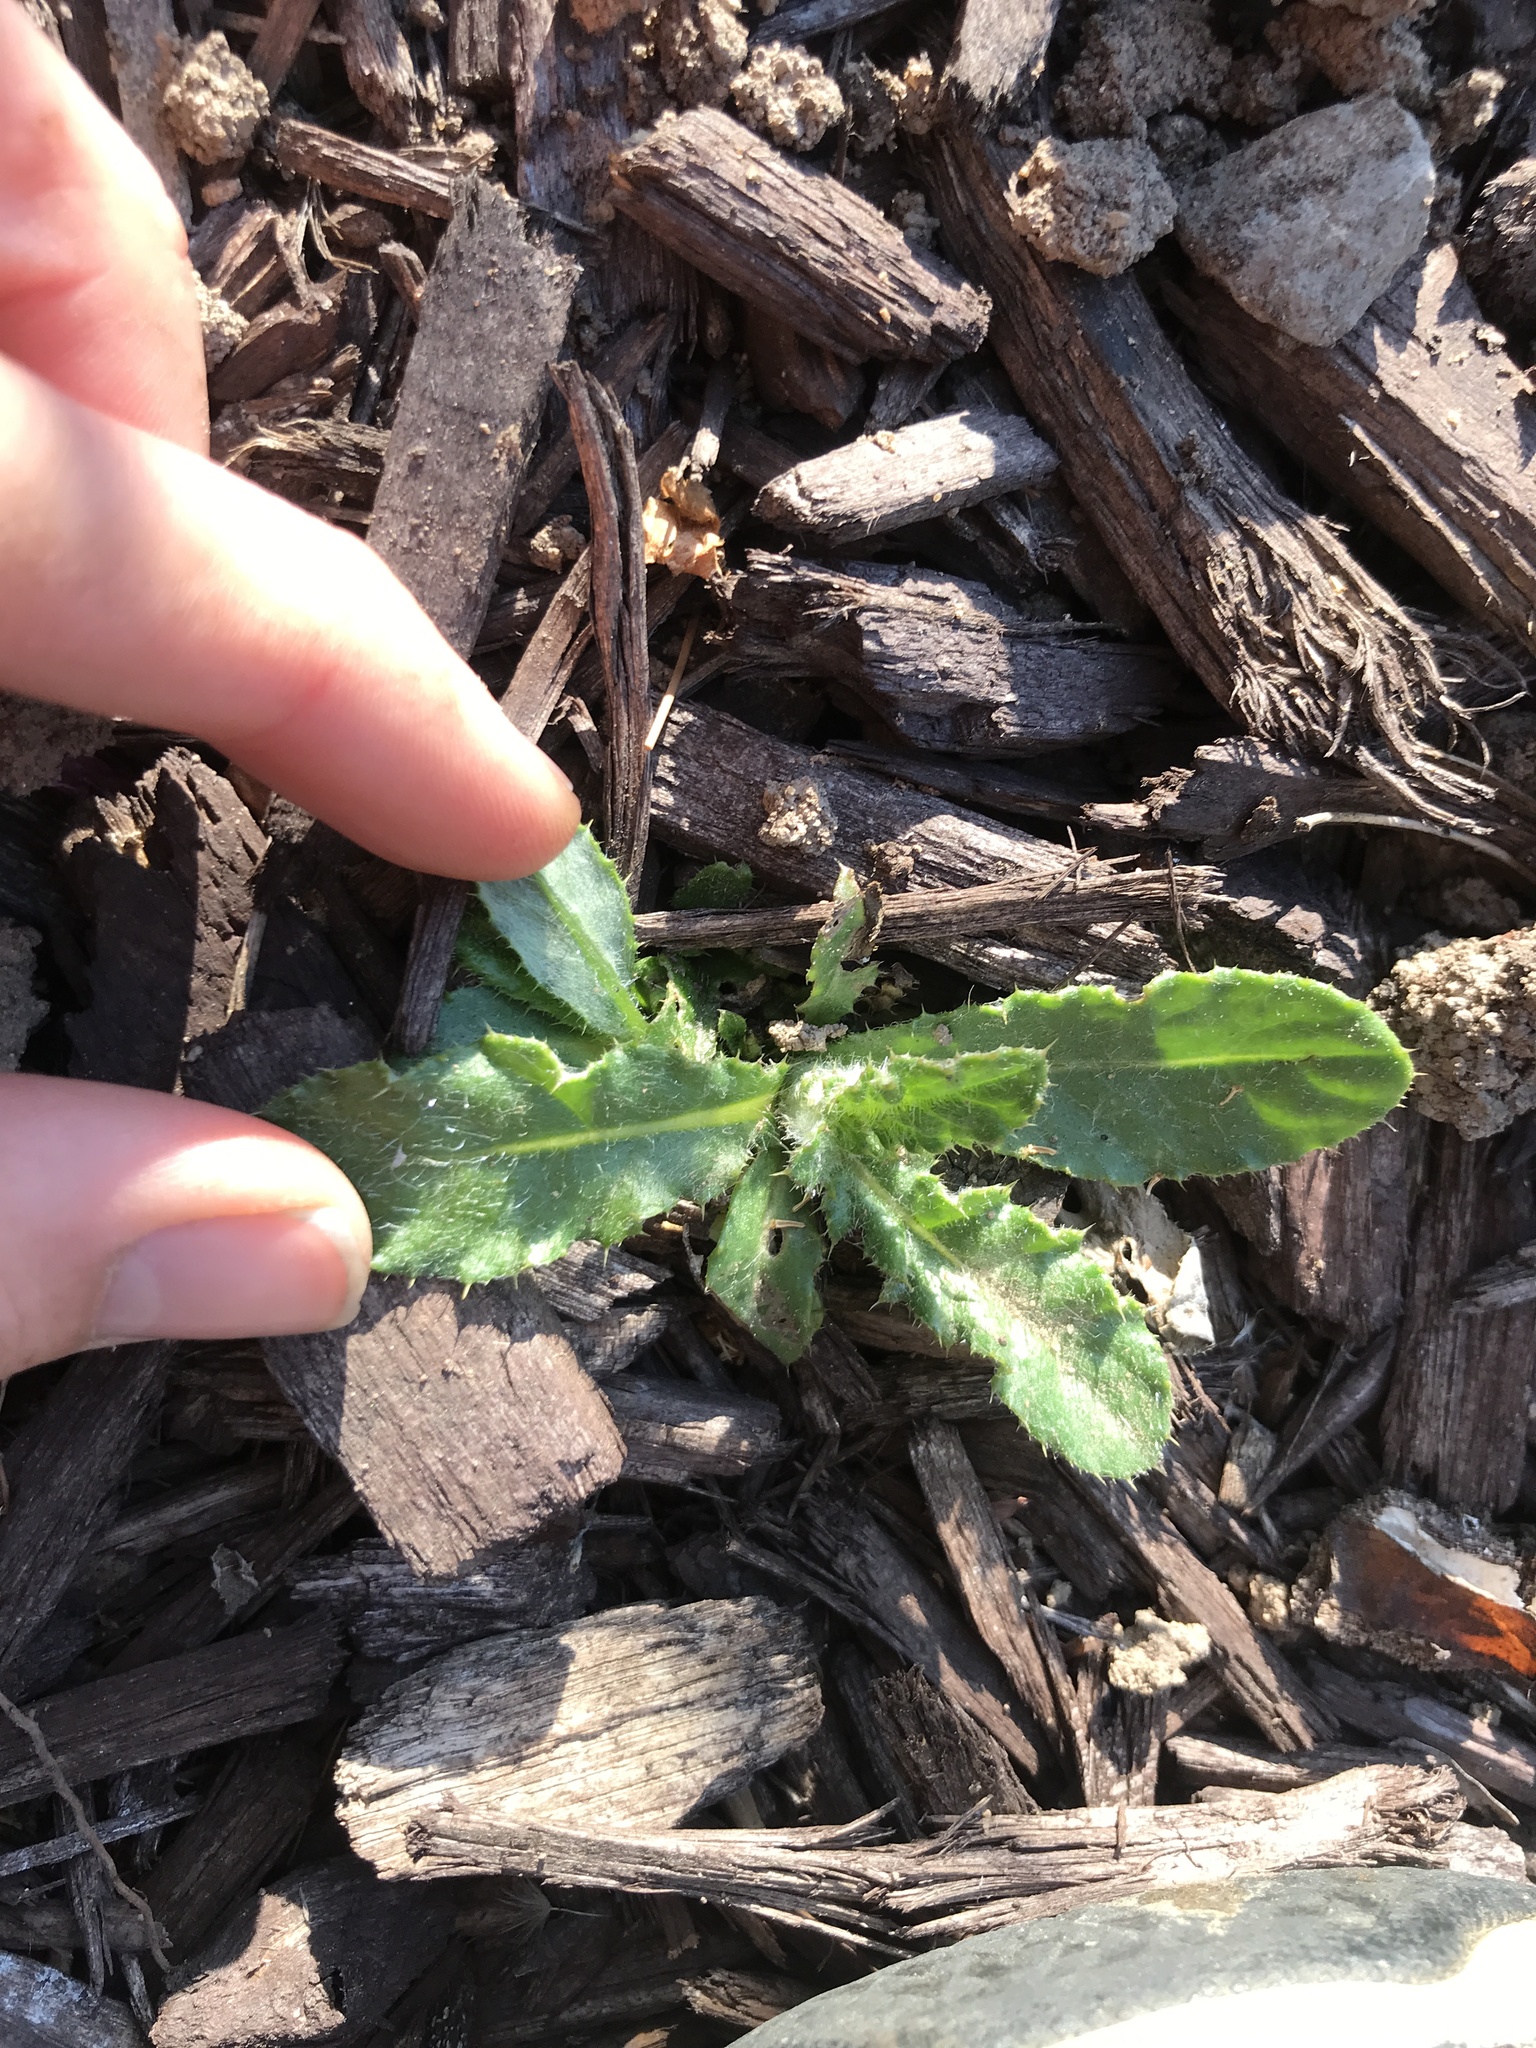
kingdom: Plantae
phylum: Tracheophyta
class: Magnoliopsida
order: Asterales
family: Asteraceae
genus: Cirsium
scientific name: Cirsium arvense
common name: Creeping thistle
